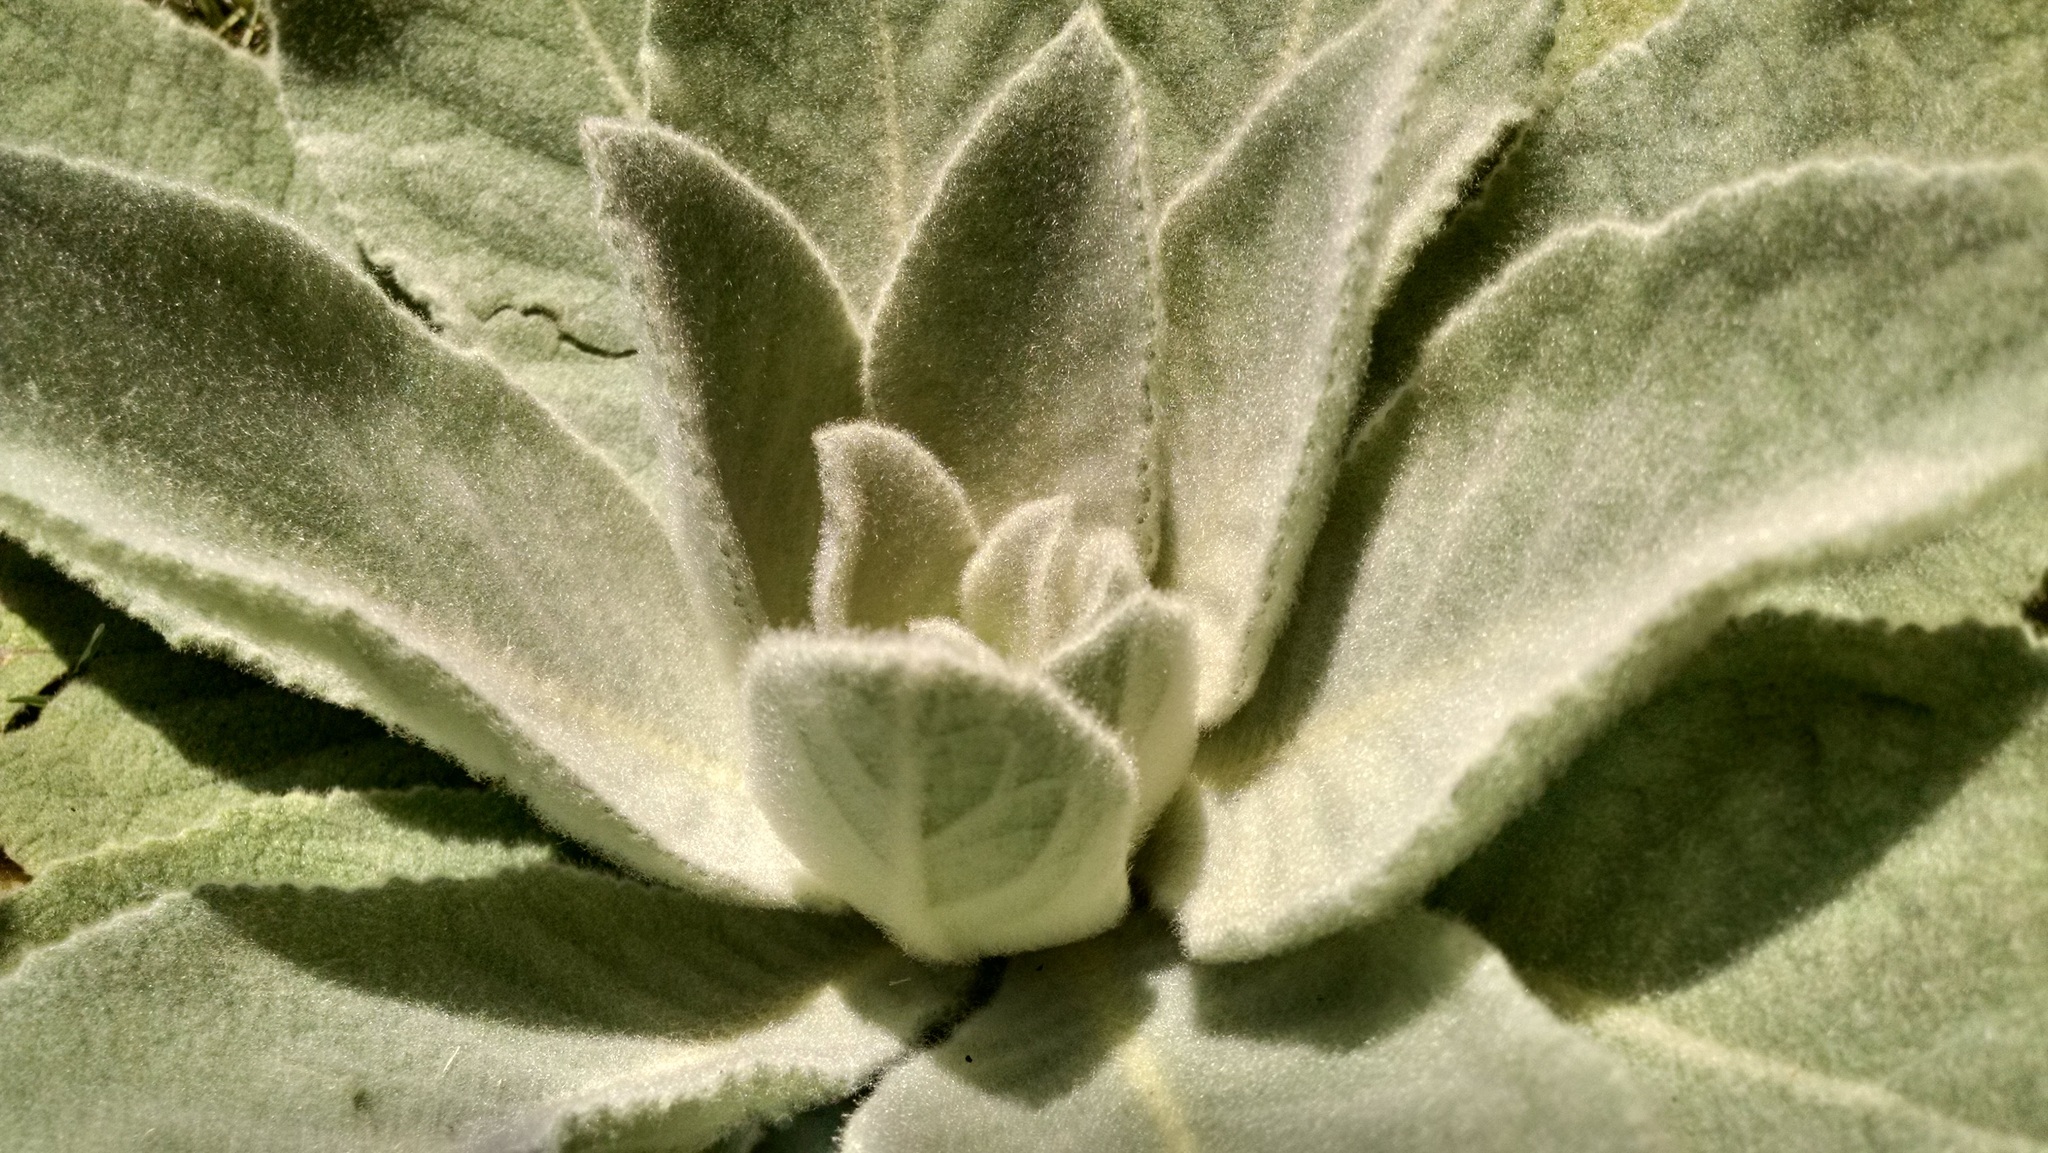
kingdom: Plantae
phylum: Tracheophyta
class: Magnoliopsida
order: Lamiales
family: Scrophulariaceae
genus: Verbascum
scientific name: Verbascum thapsus
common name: Common mullein
